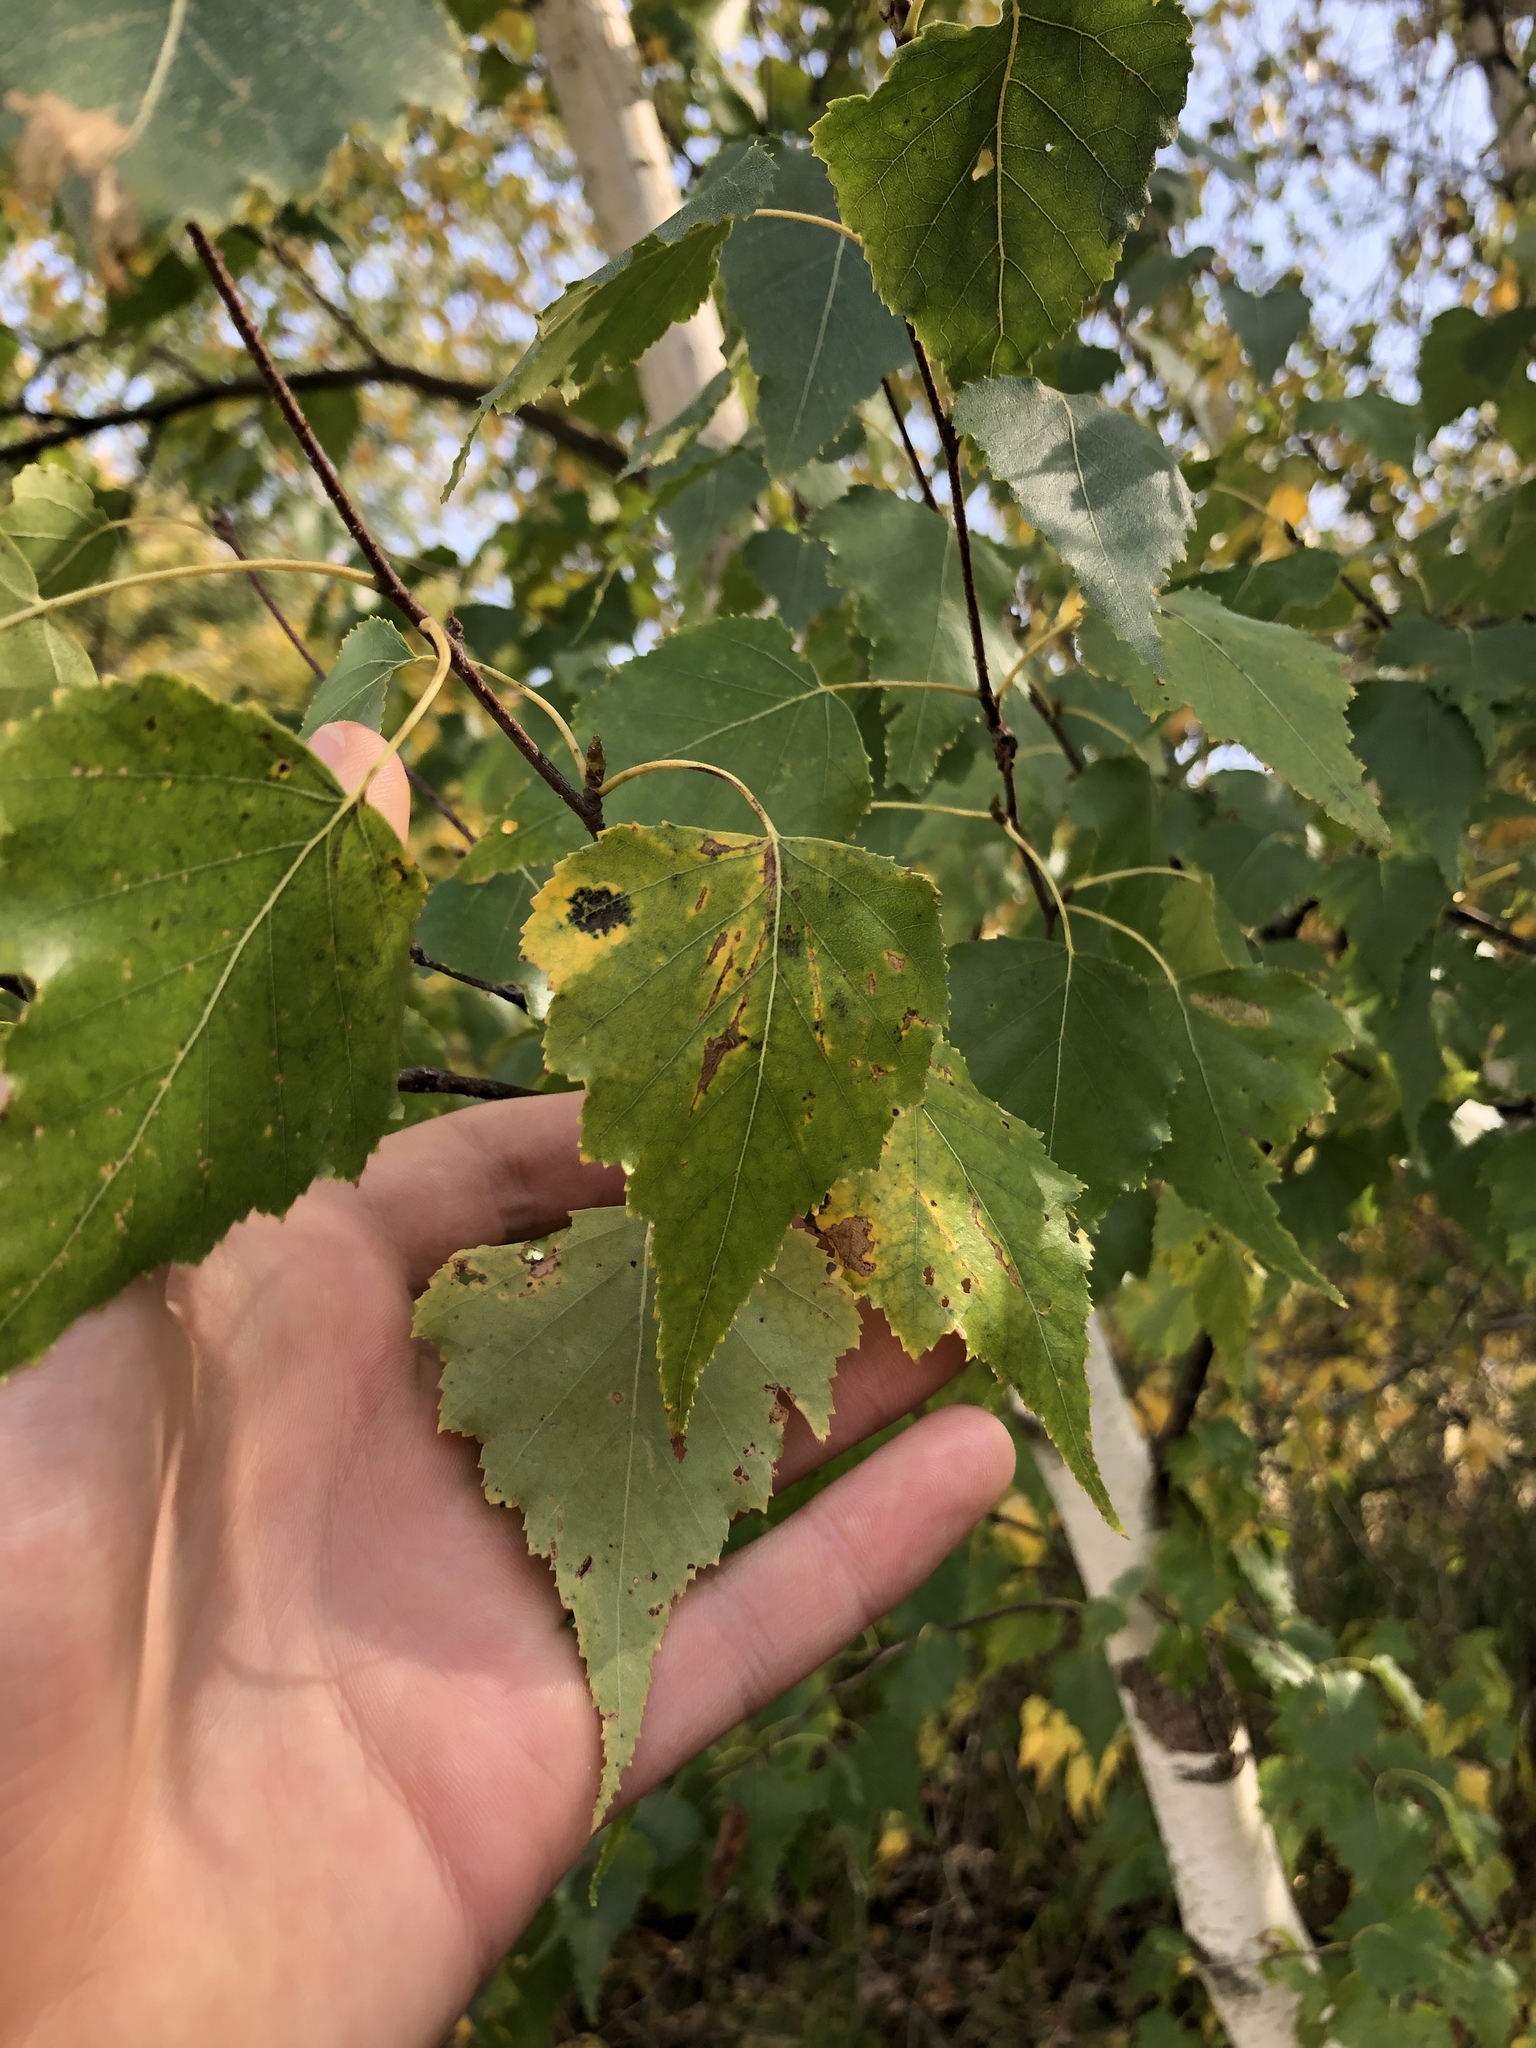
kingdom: Plantae
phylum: Tracheophyta
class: Magnoliopsida
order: Fagales
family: Betulaceae
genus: Betula
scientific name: Betula populifolia
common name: Fire birch
